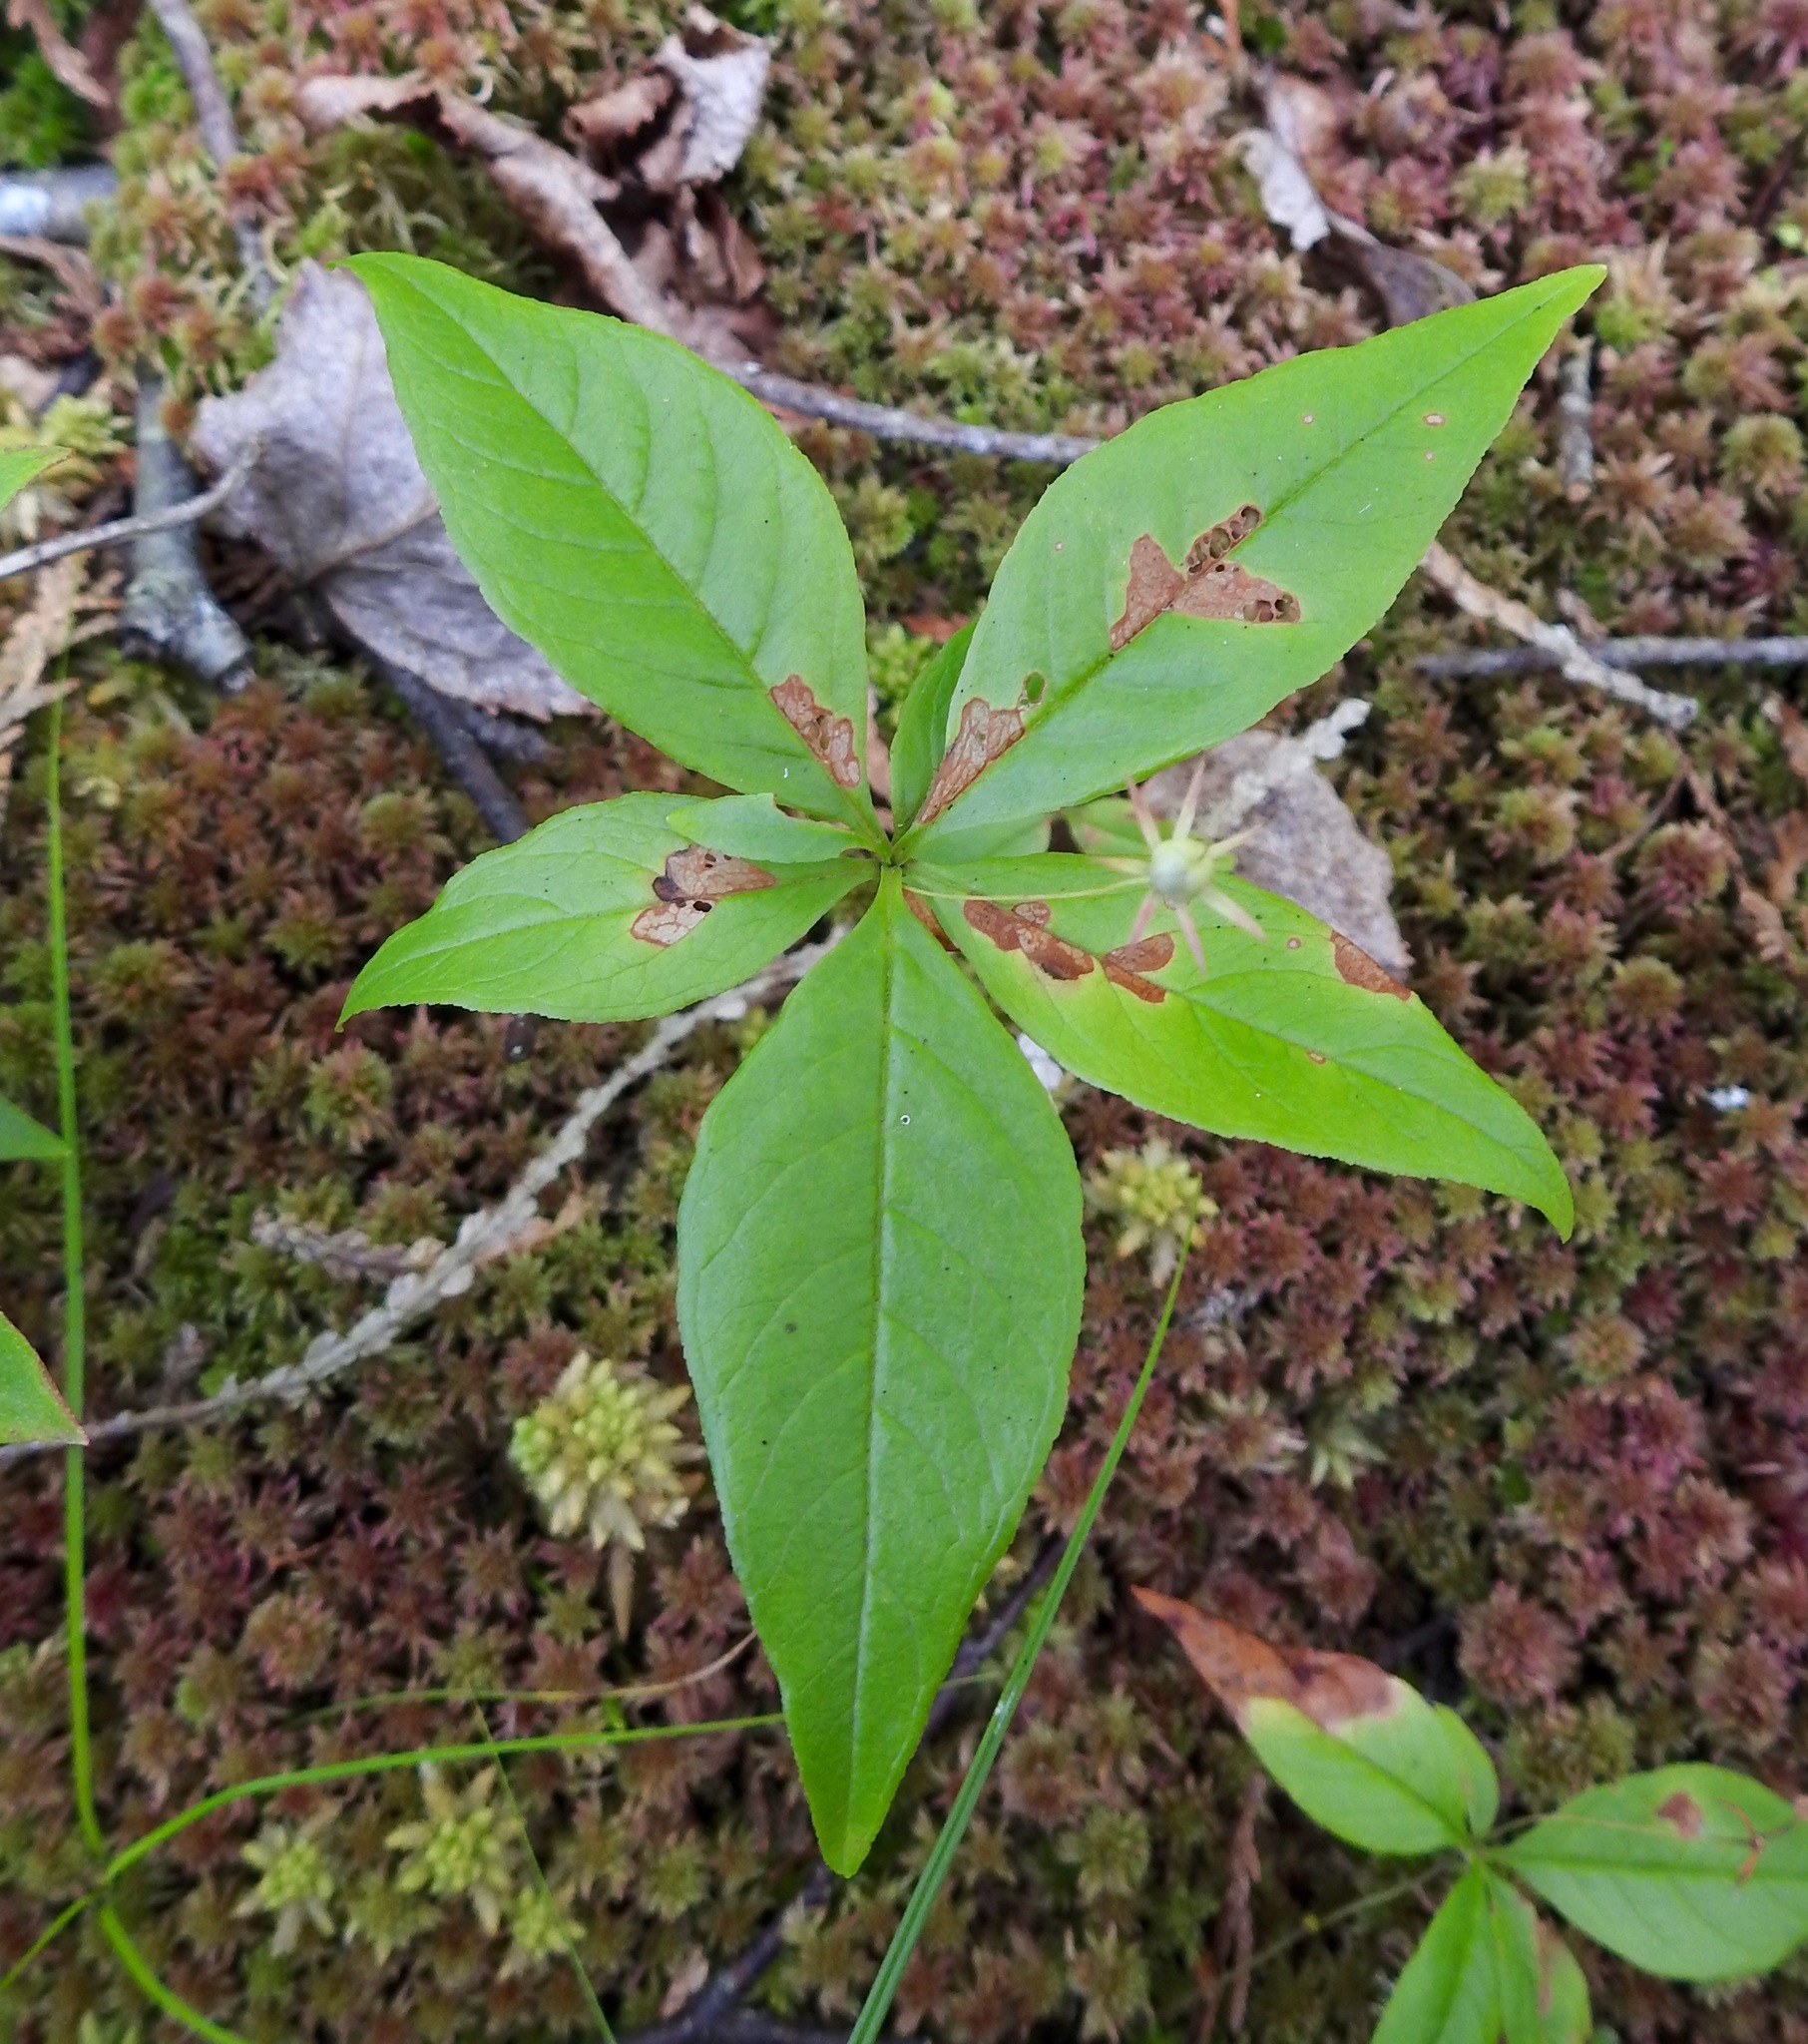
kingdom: Plantae
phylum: Tracheophyta
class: Magnoliopsida
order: Ericales
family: Primulaceae
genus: Lysimachia
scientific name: Lysimachia borealis
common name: American starflower
